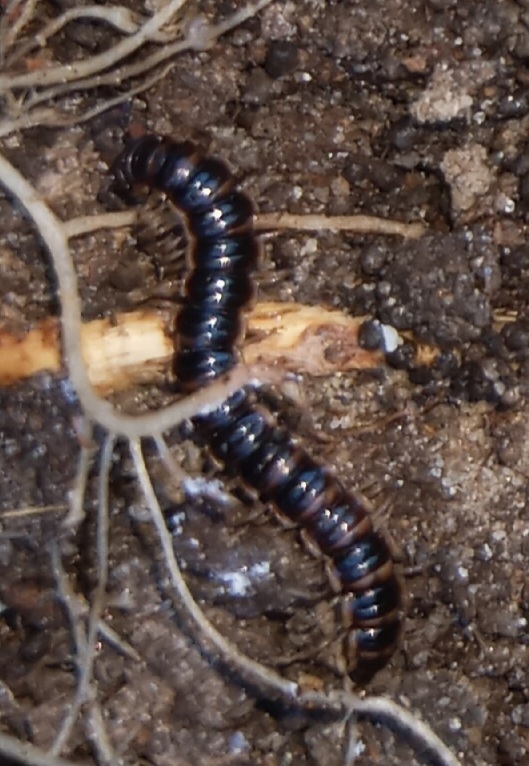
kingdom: Animalia
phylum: Arthropoda
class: Diplopoda
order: Polydesmida
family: Paradoxosomatidae
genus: Oxidus
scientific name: Oxidus gracilis
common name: Greenhouse millipede
